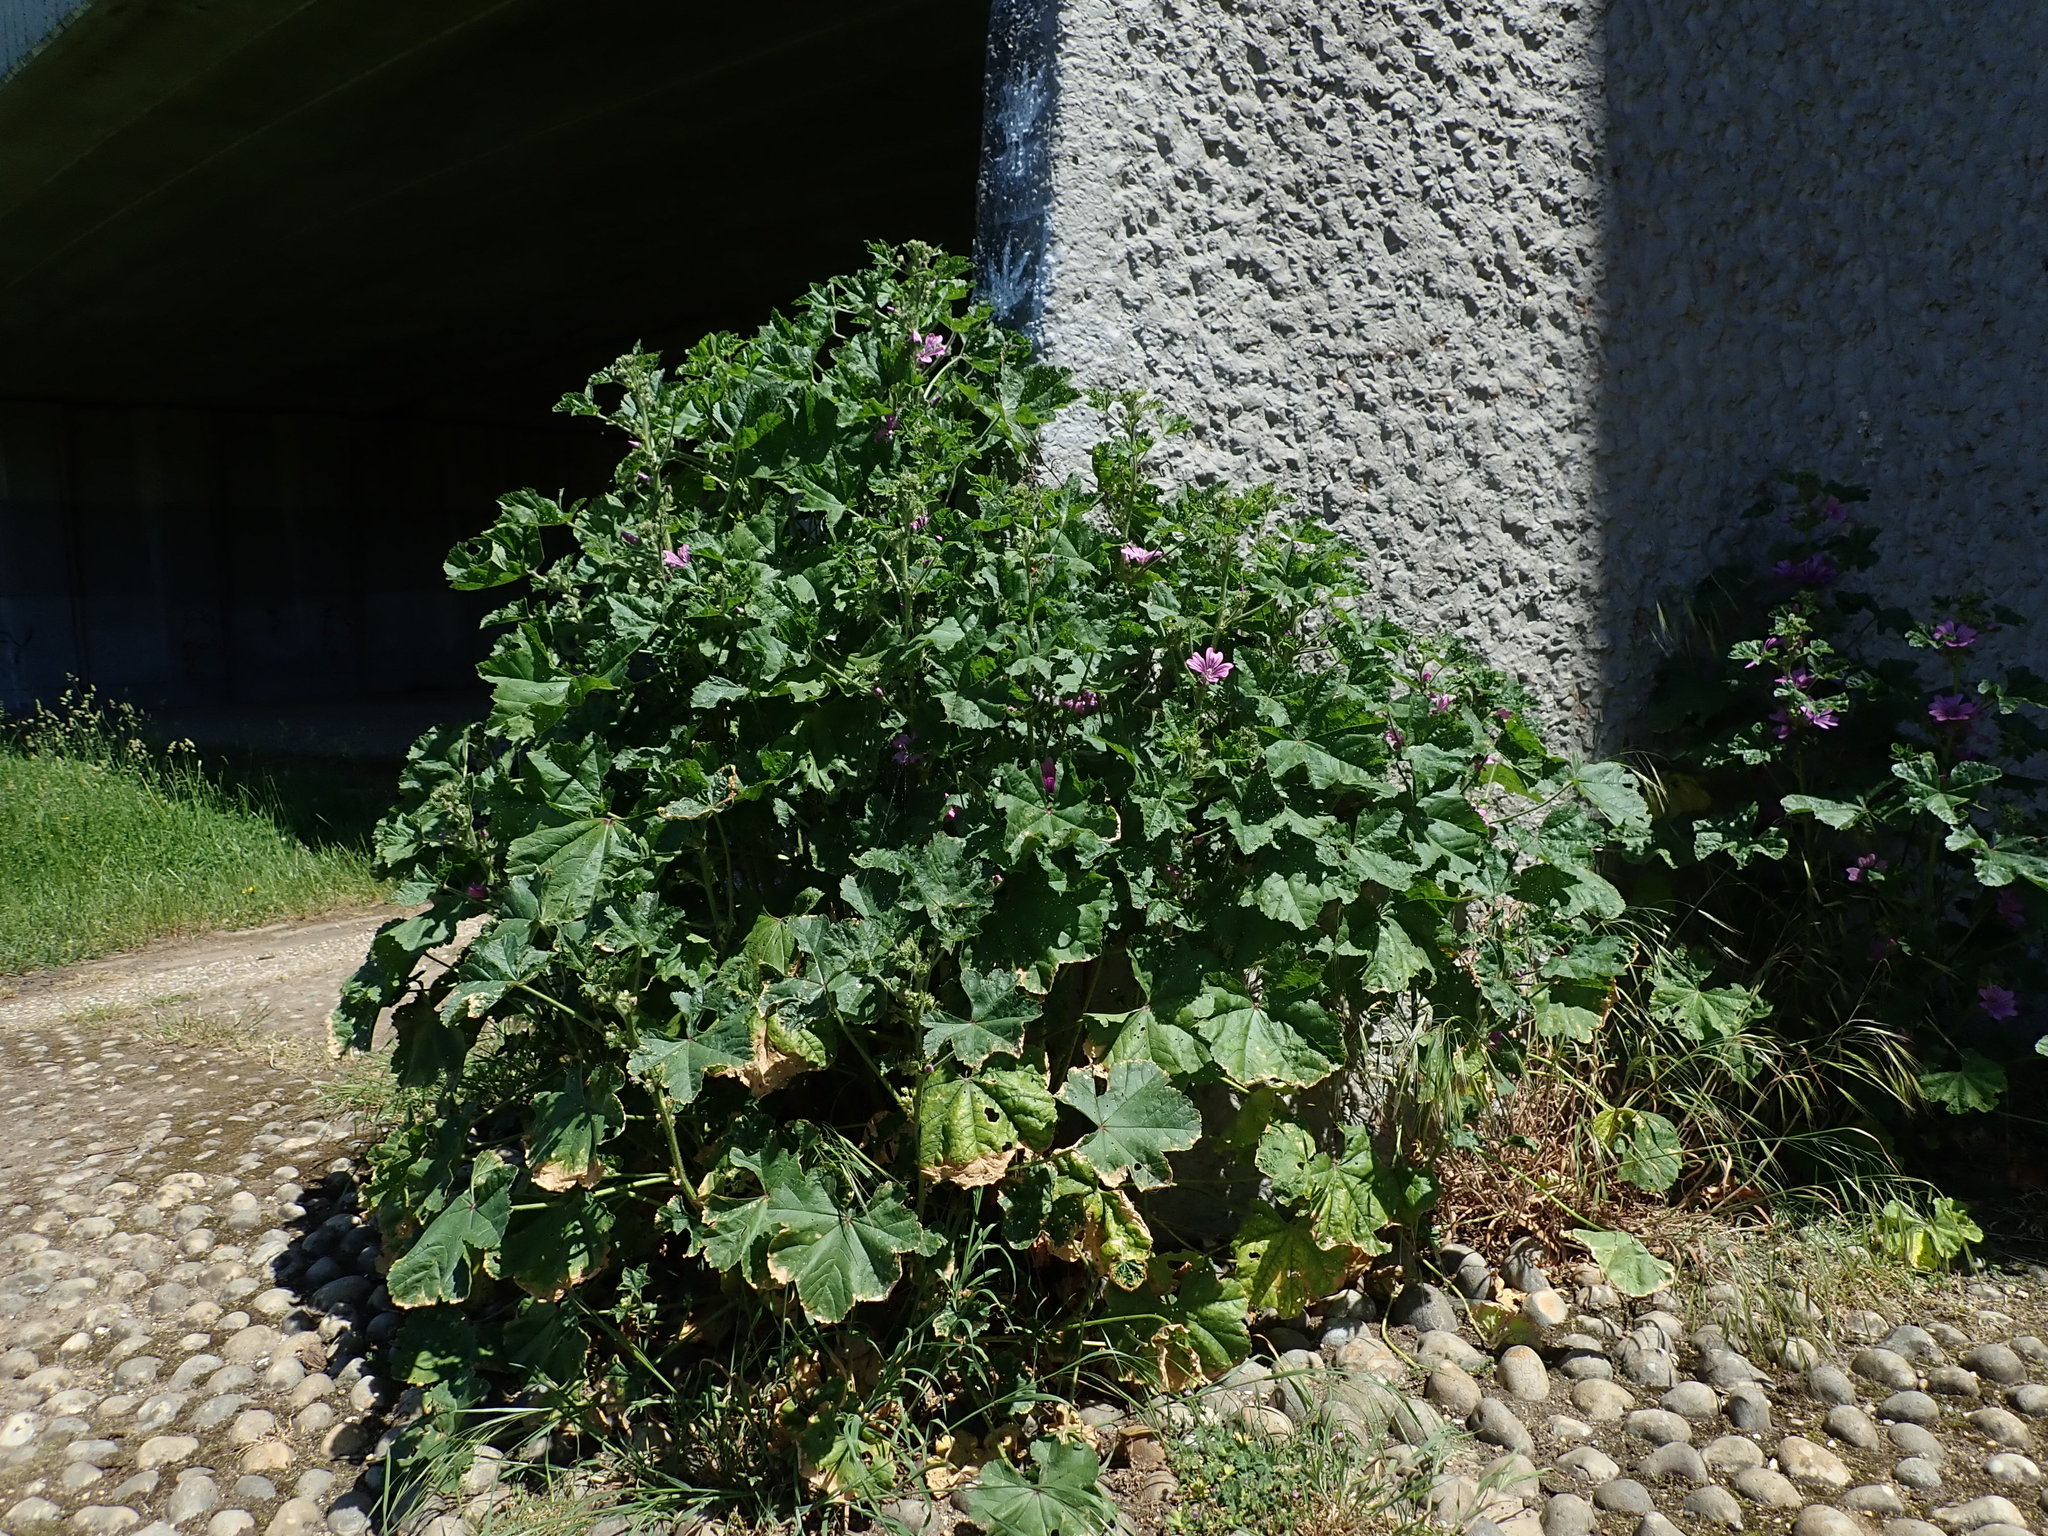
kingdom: Plantae
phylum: Tracheophyta
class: Magnoliopsida
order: Malvales
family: Malvaceae
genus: Malva
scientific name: Malva sylvestris
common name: Common mallow
